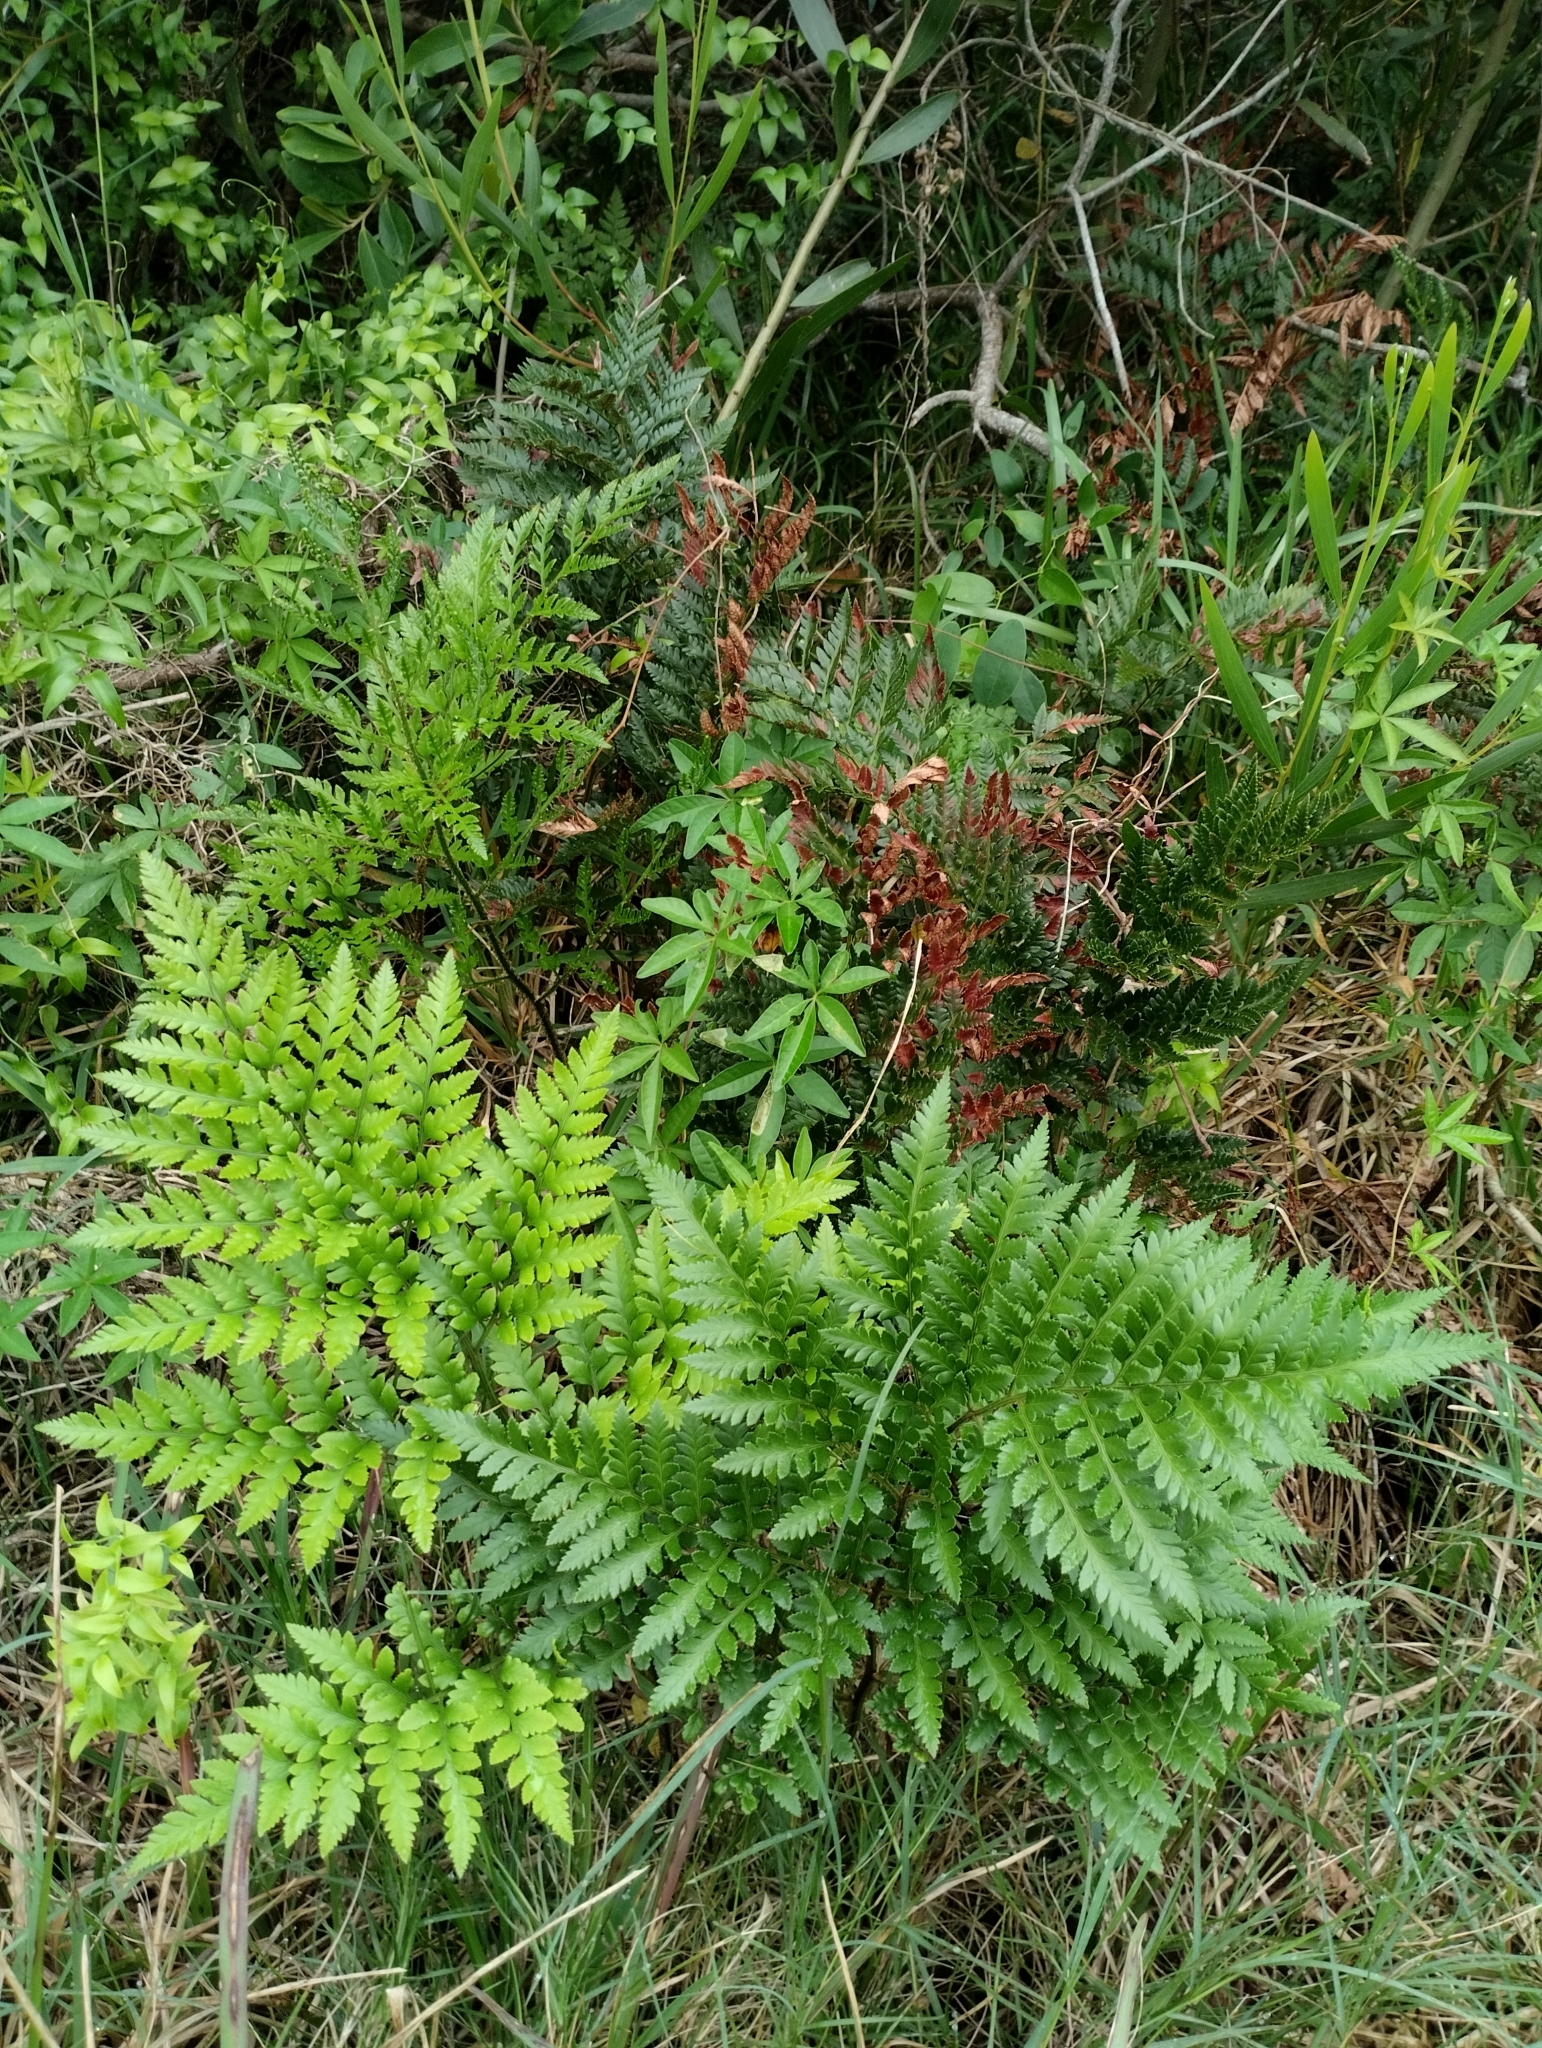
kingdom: Plantae
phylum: Tracheophyta
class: Polypodiopsida
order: Polypodiales
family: Dryopteridaceae
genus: Rumohra
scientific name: Rumohra adiantiformis
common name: Leather fern
